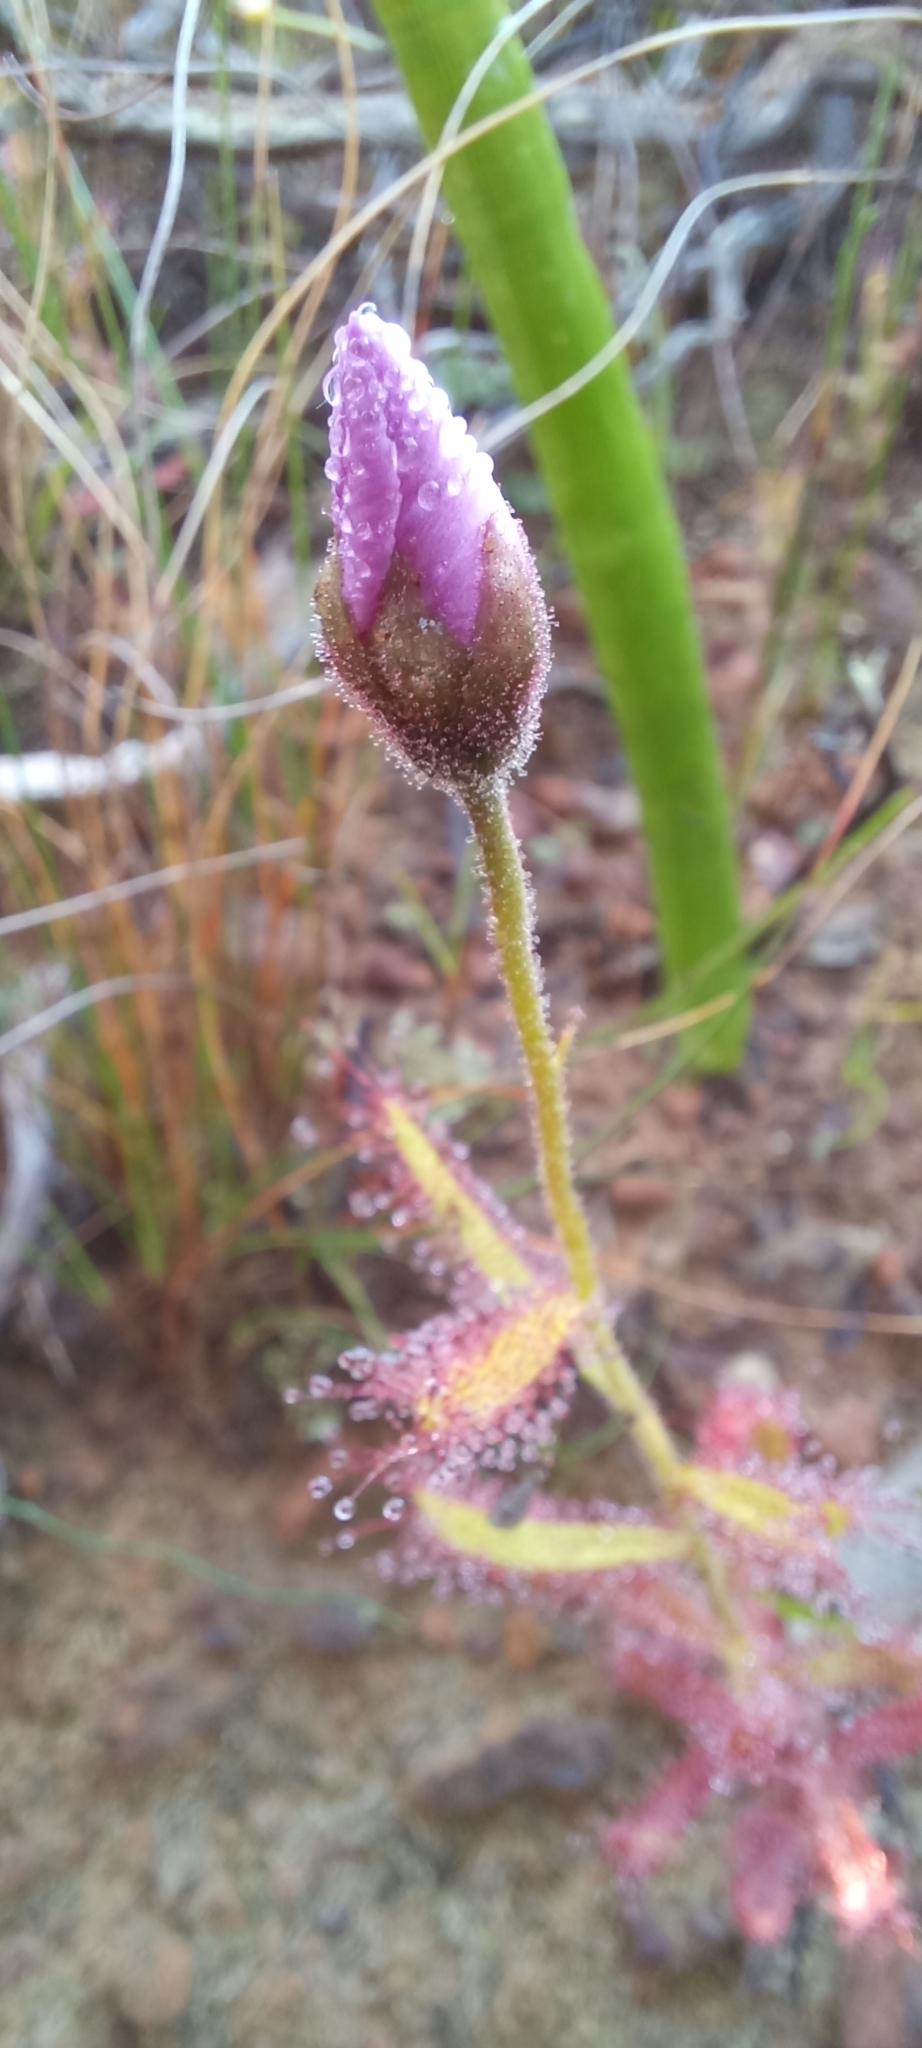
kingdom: Plantae
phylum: Tracheophyta
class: Magnoliopsida
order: Caryophyllales
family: Droseraceae
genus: Drosera
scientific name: Drosera cistiflora
